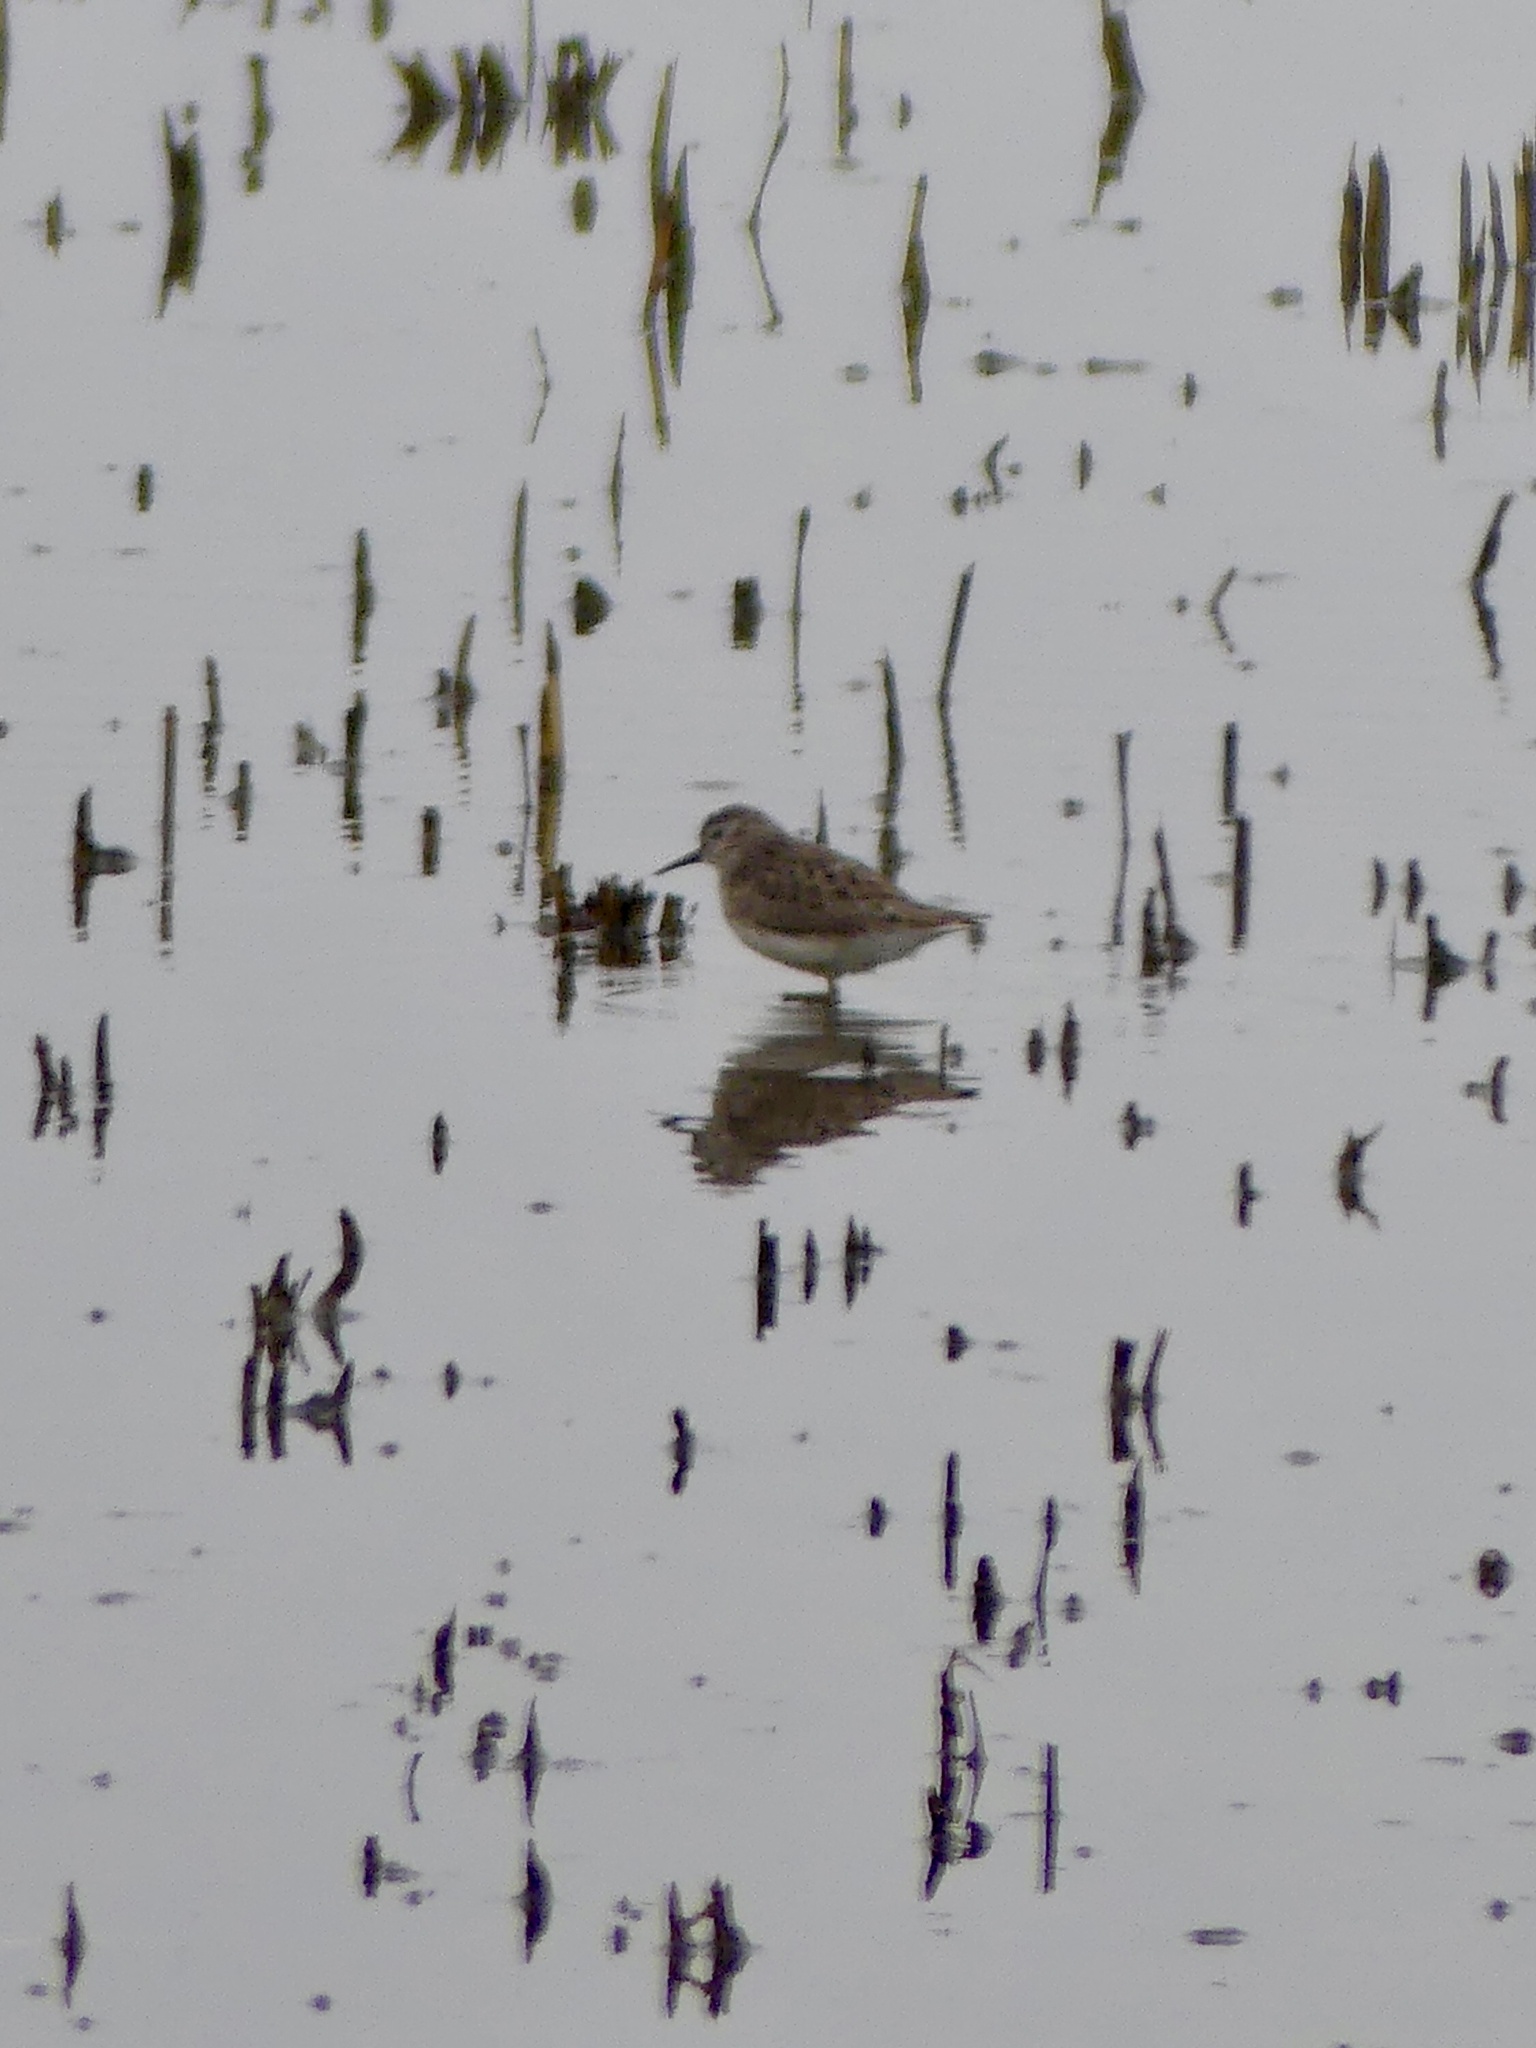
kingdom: Animalia
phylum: Chordata
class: Aves
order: Charadriiformes
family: Scolopacidae
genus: Calidris
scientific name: Calidris minutilla
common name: Least sandpiper
